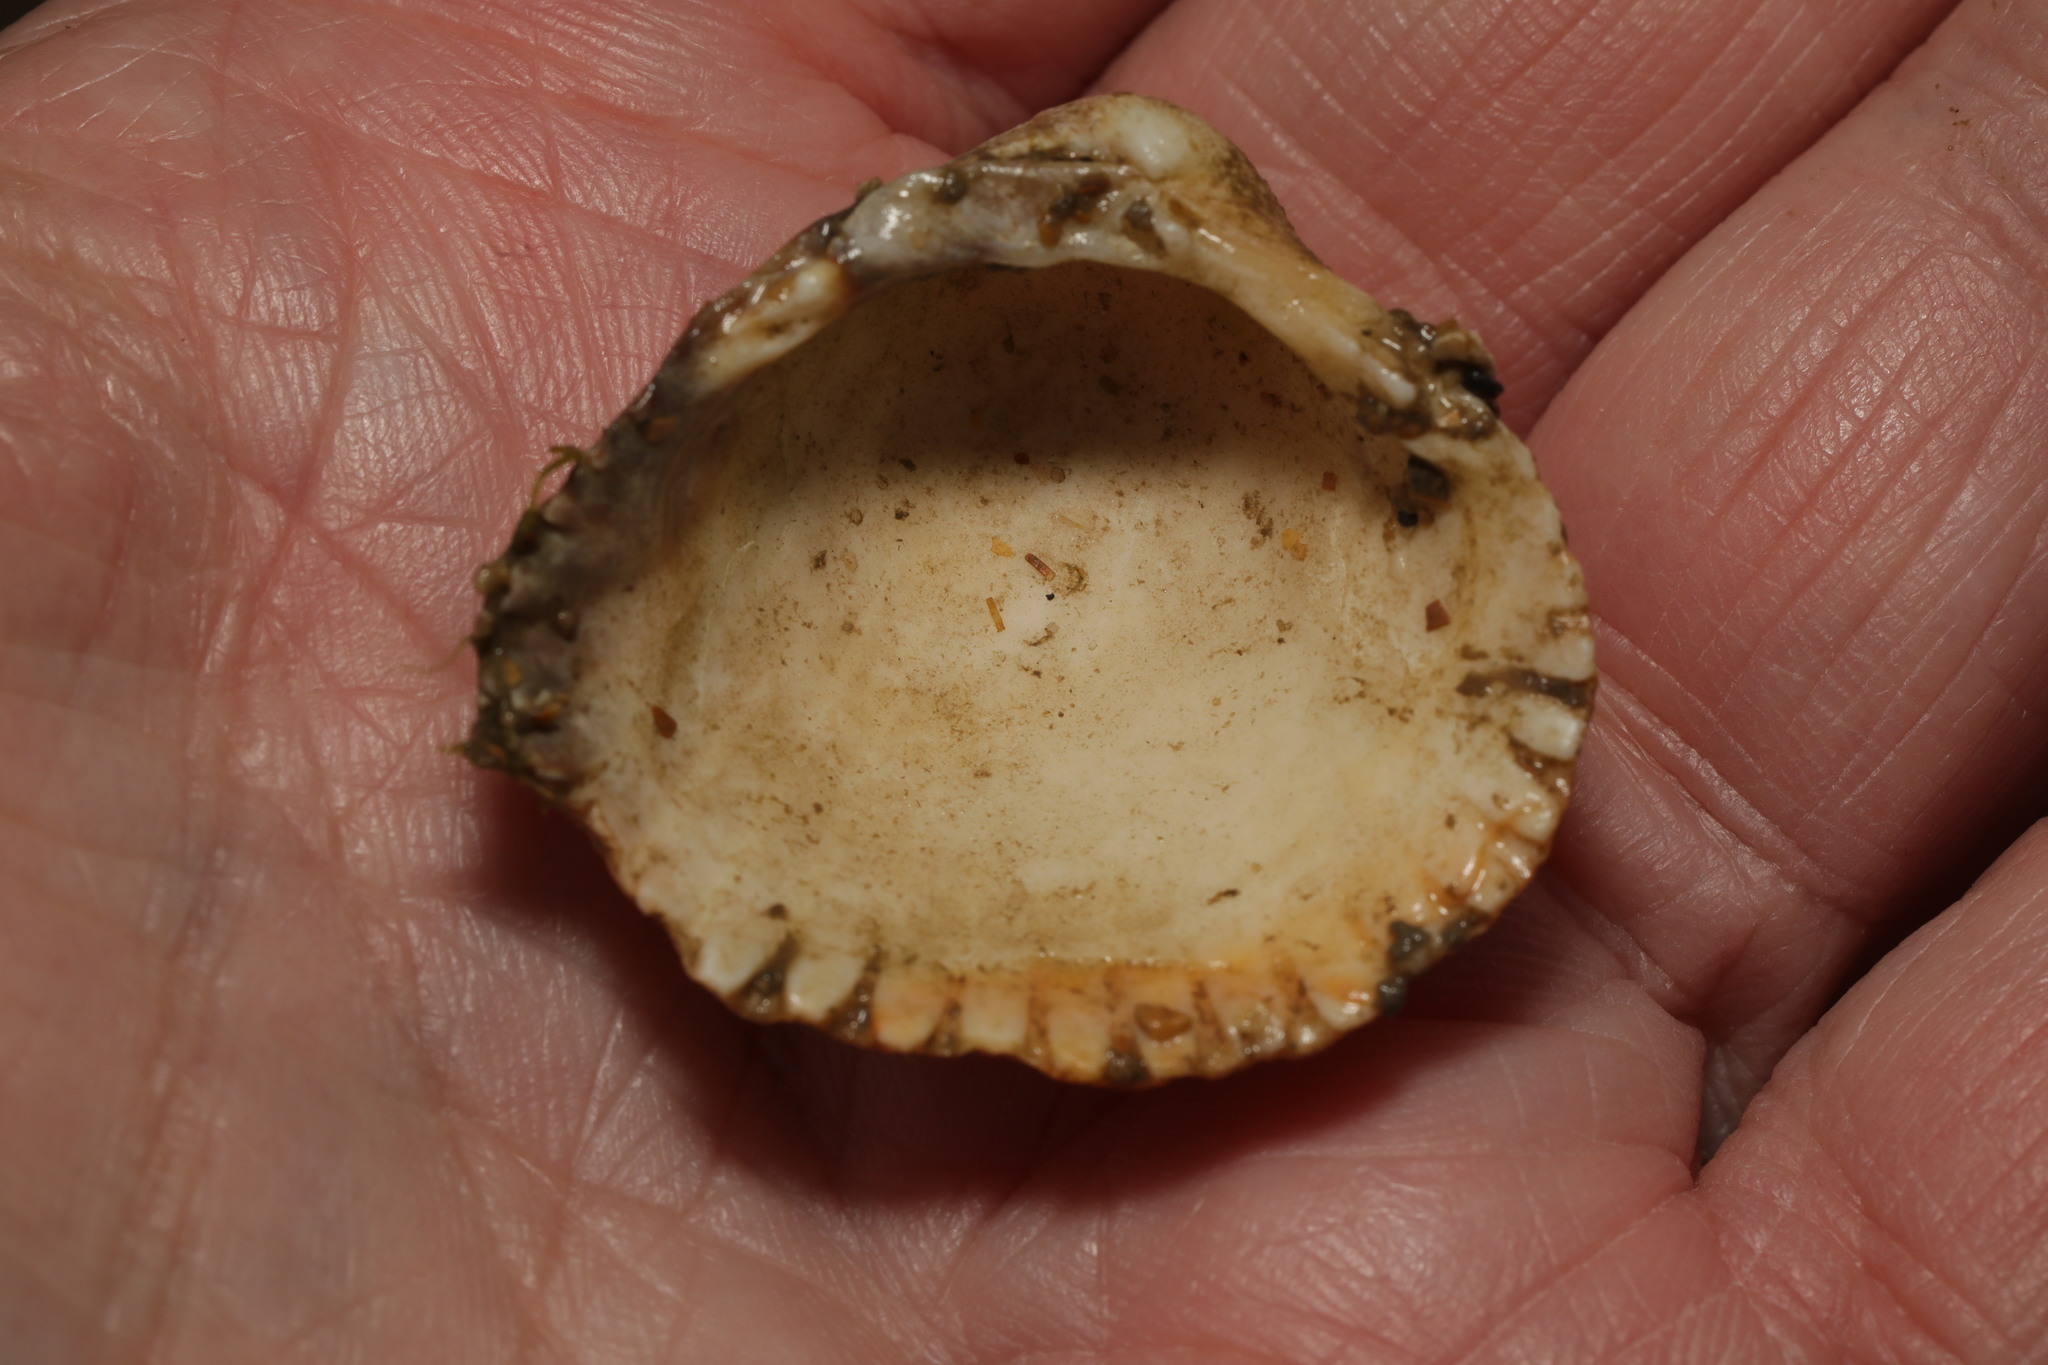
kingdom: Animalia
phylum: Mollusca
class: Bivalvia
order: Cardiida
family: Cardiidae
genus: Cerastoderma
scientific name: Cerastoderma edule
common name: Common cockle
